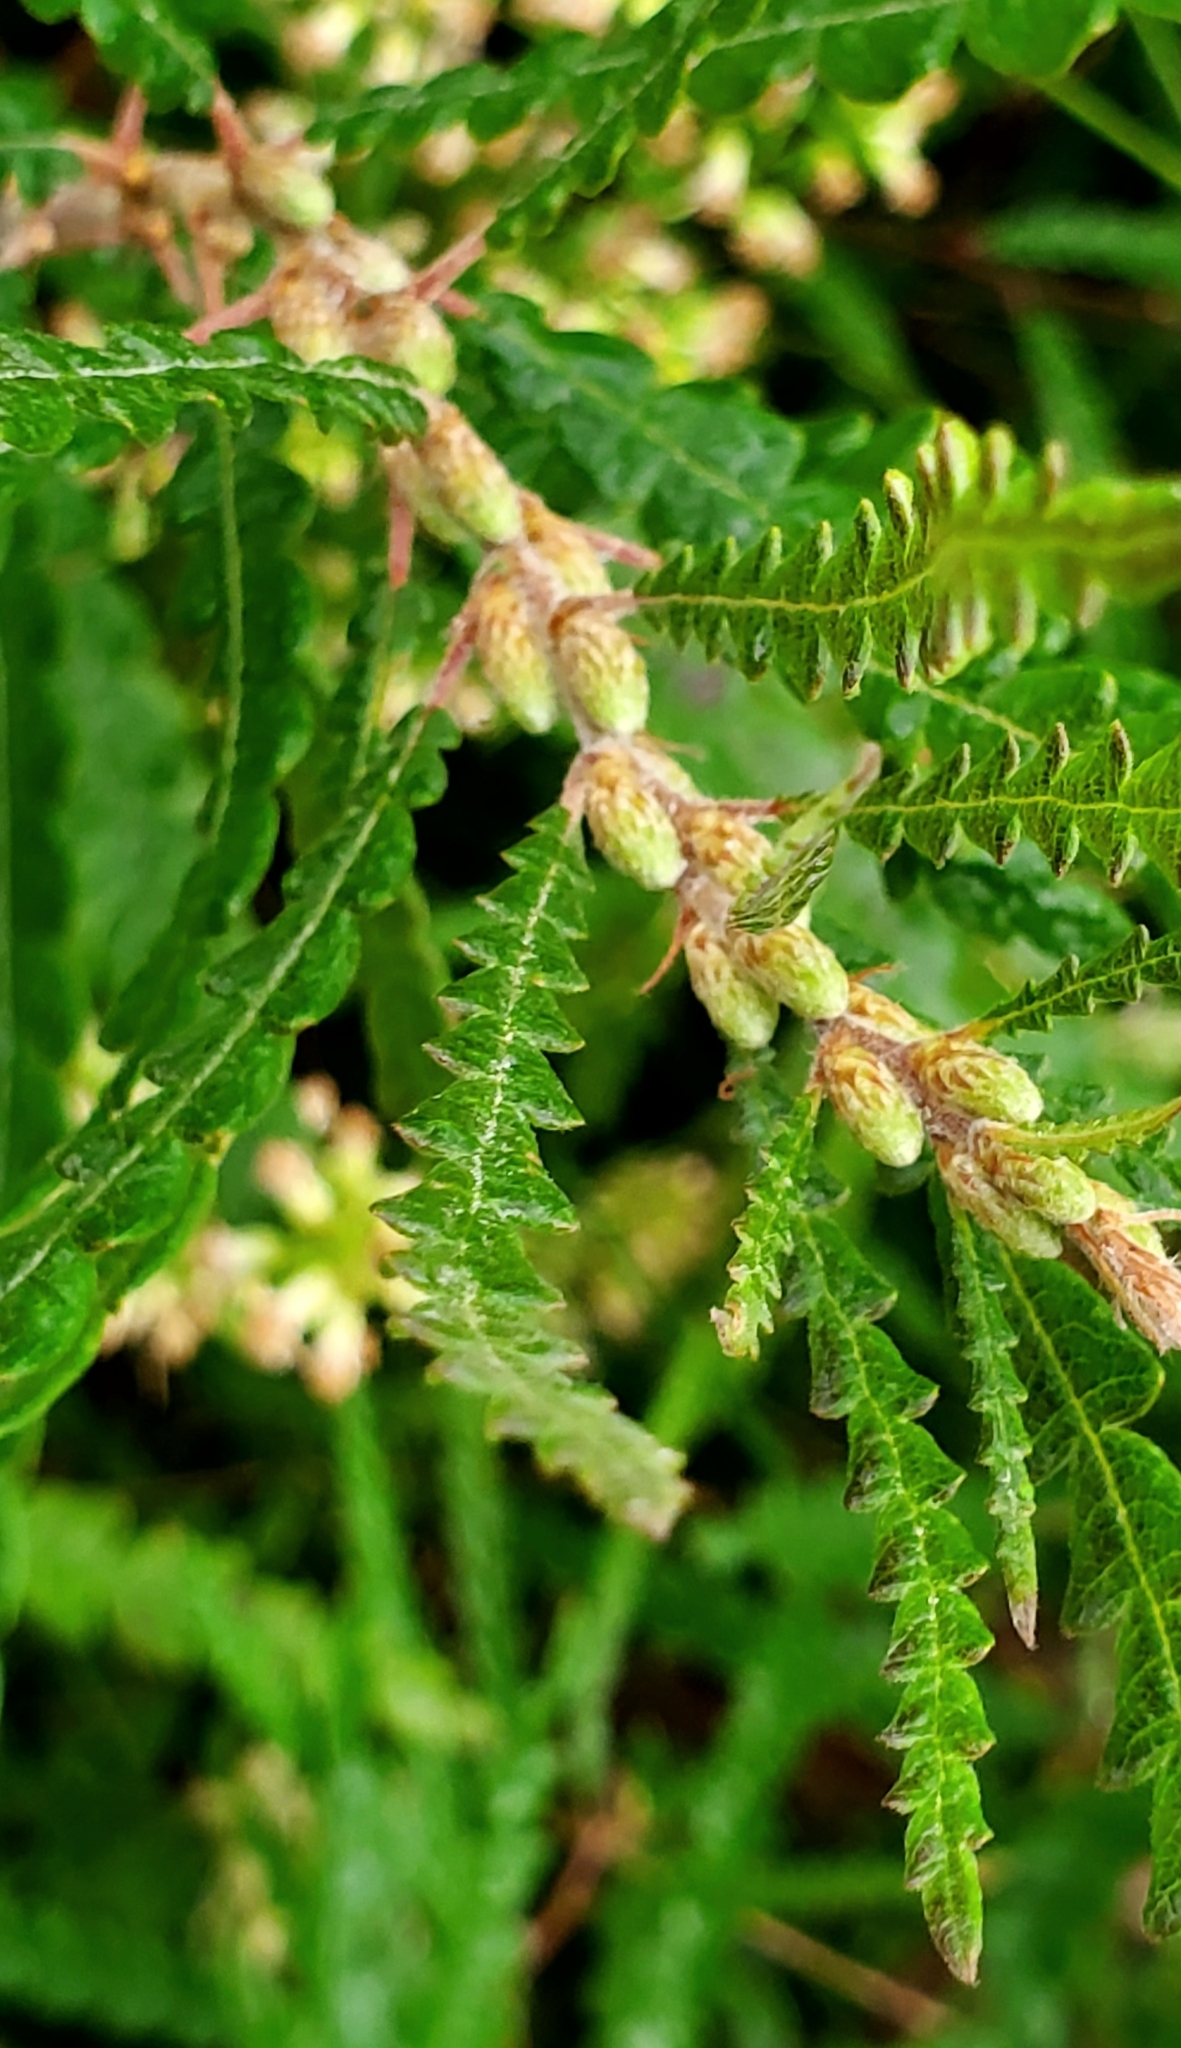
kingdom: Plantae
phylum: Tracheophyta
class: Magnoliopsida
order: Fagales
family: Myricaceae
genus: Comptonia
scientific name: Comptonia peregrina
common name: Sweet-fern
